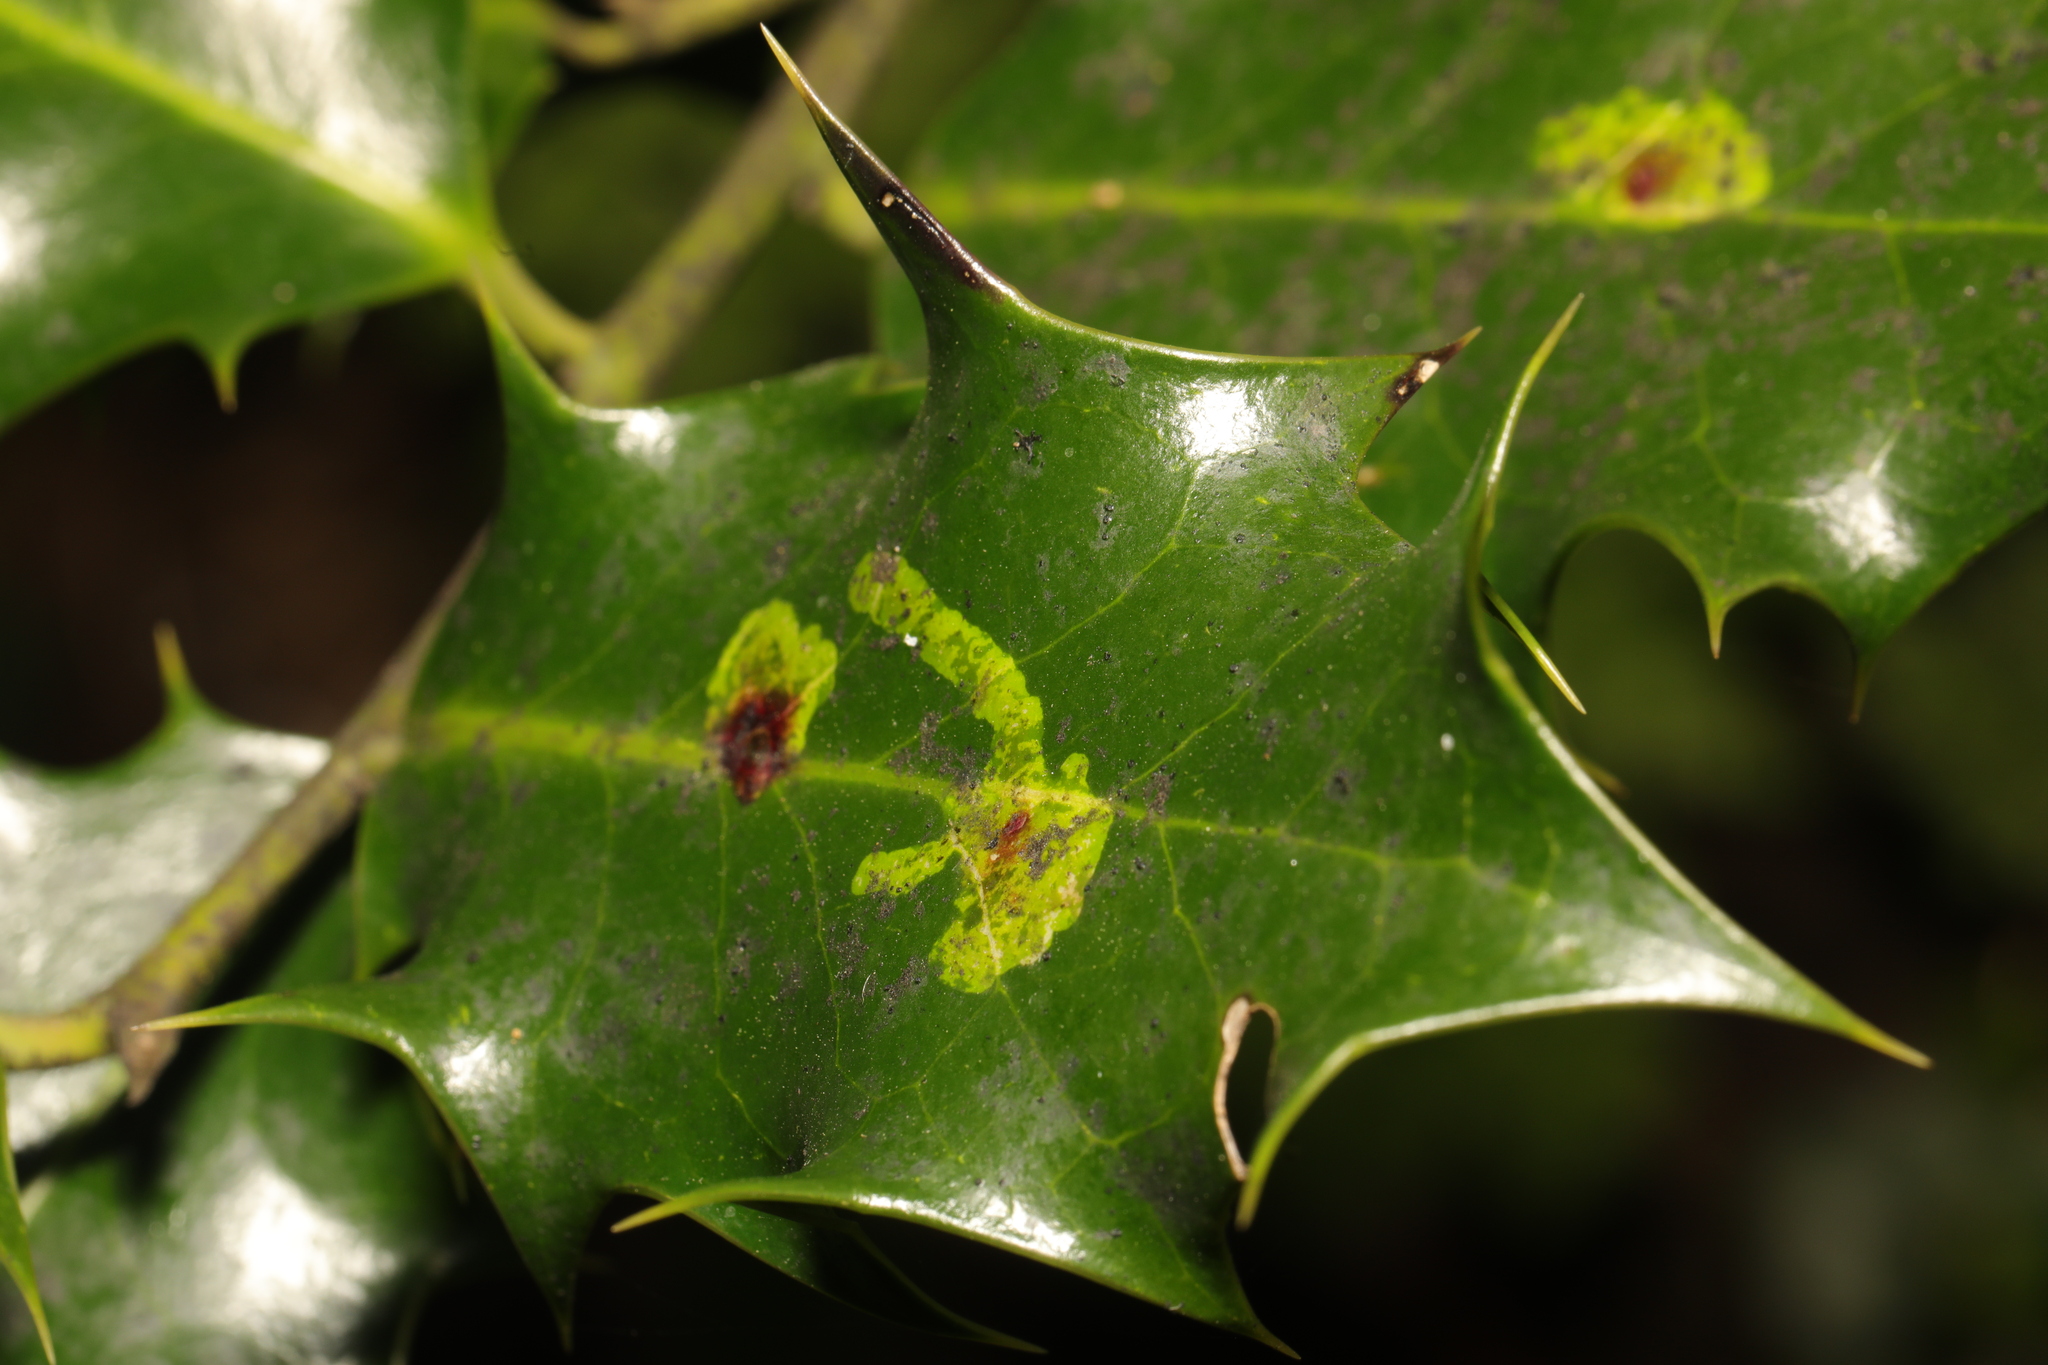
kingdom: Animalia
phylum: Arthropoda
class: Insecta
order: Diptera
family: Agromyzidae
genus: Phytomyza
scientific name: Phytomyza ilicis
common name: Holly leafminer
